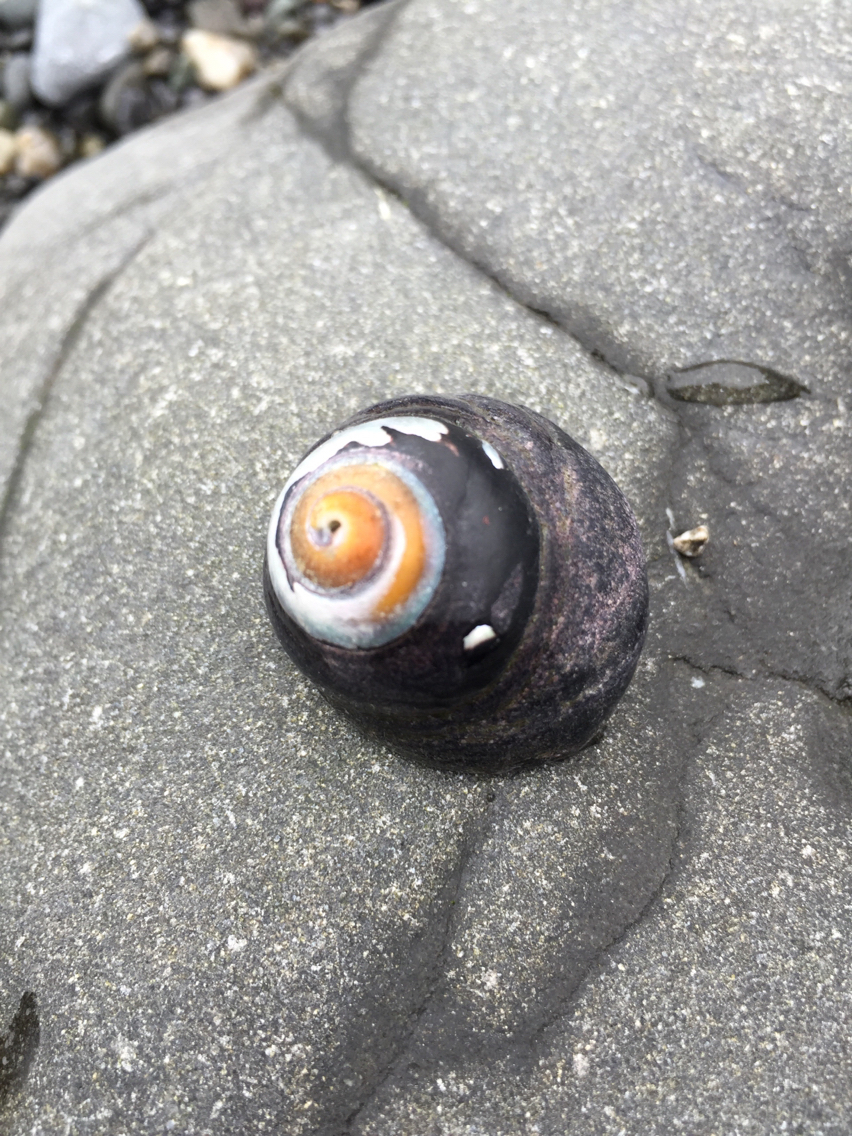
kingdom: Animalia
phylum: Mollusca
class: Gastropoda
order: Trochida
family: Tegulidae
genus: Tegula
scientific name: Tegula funebralis
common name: Black tegula
